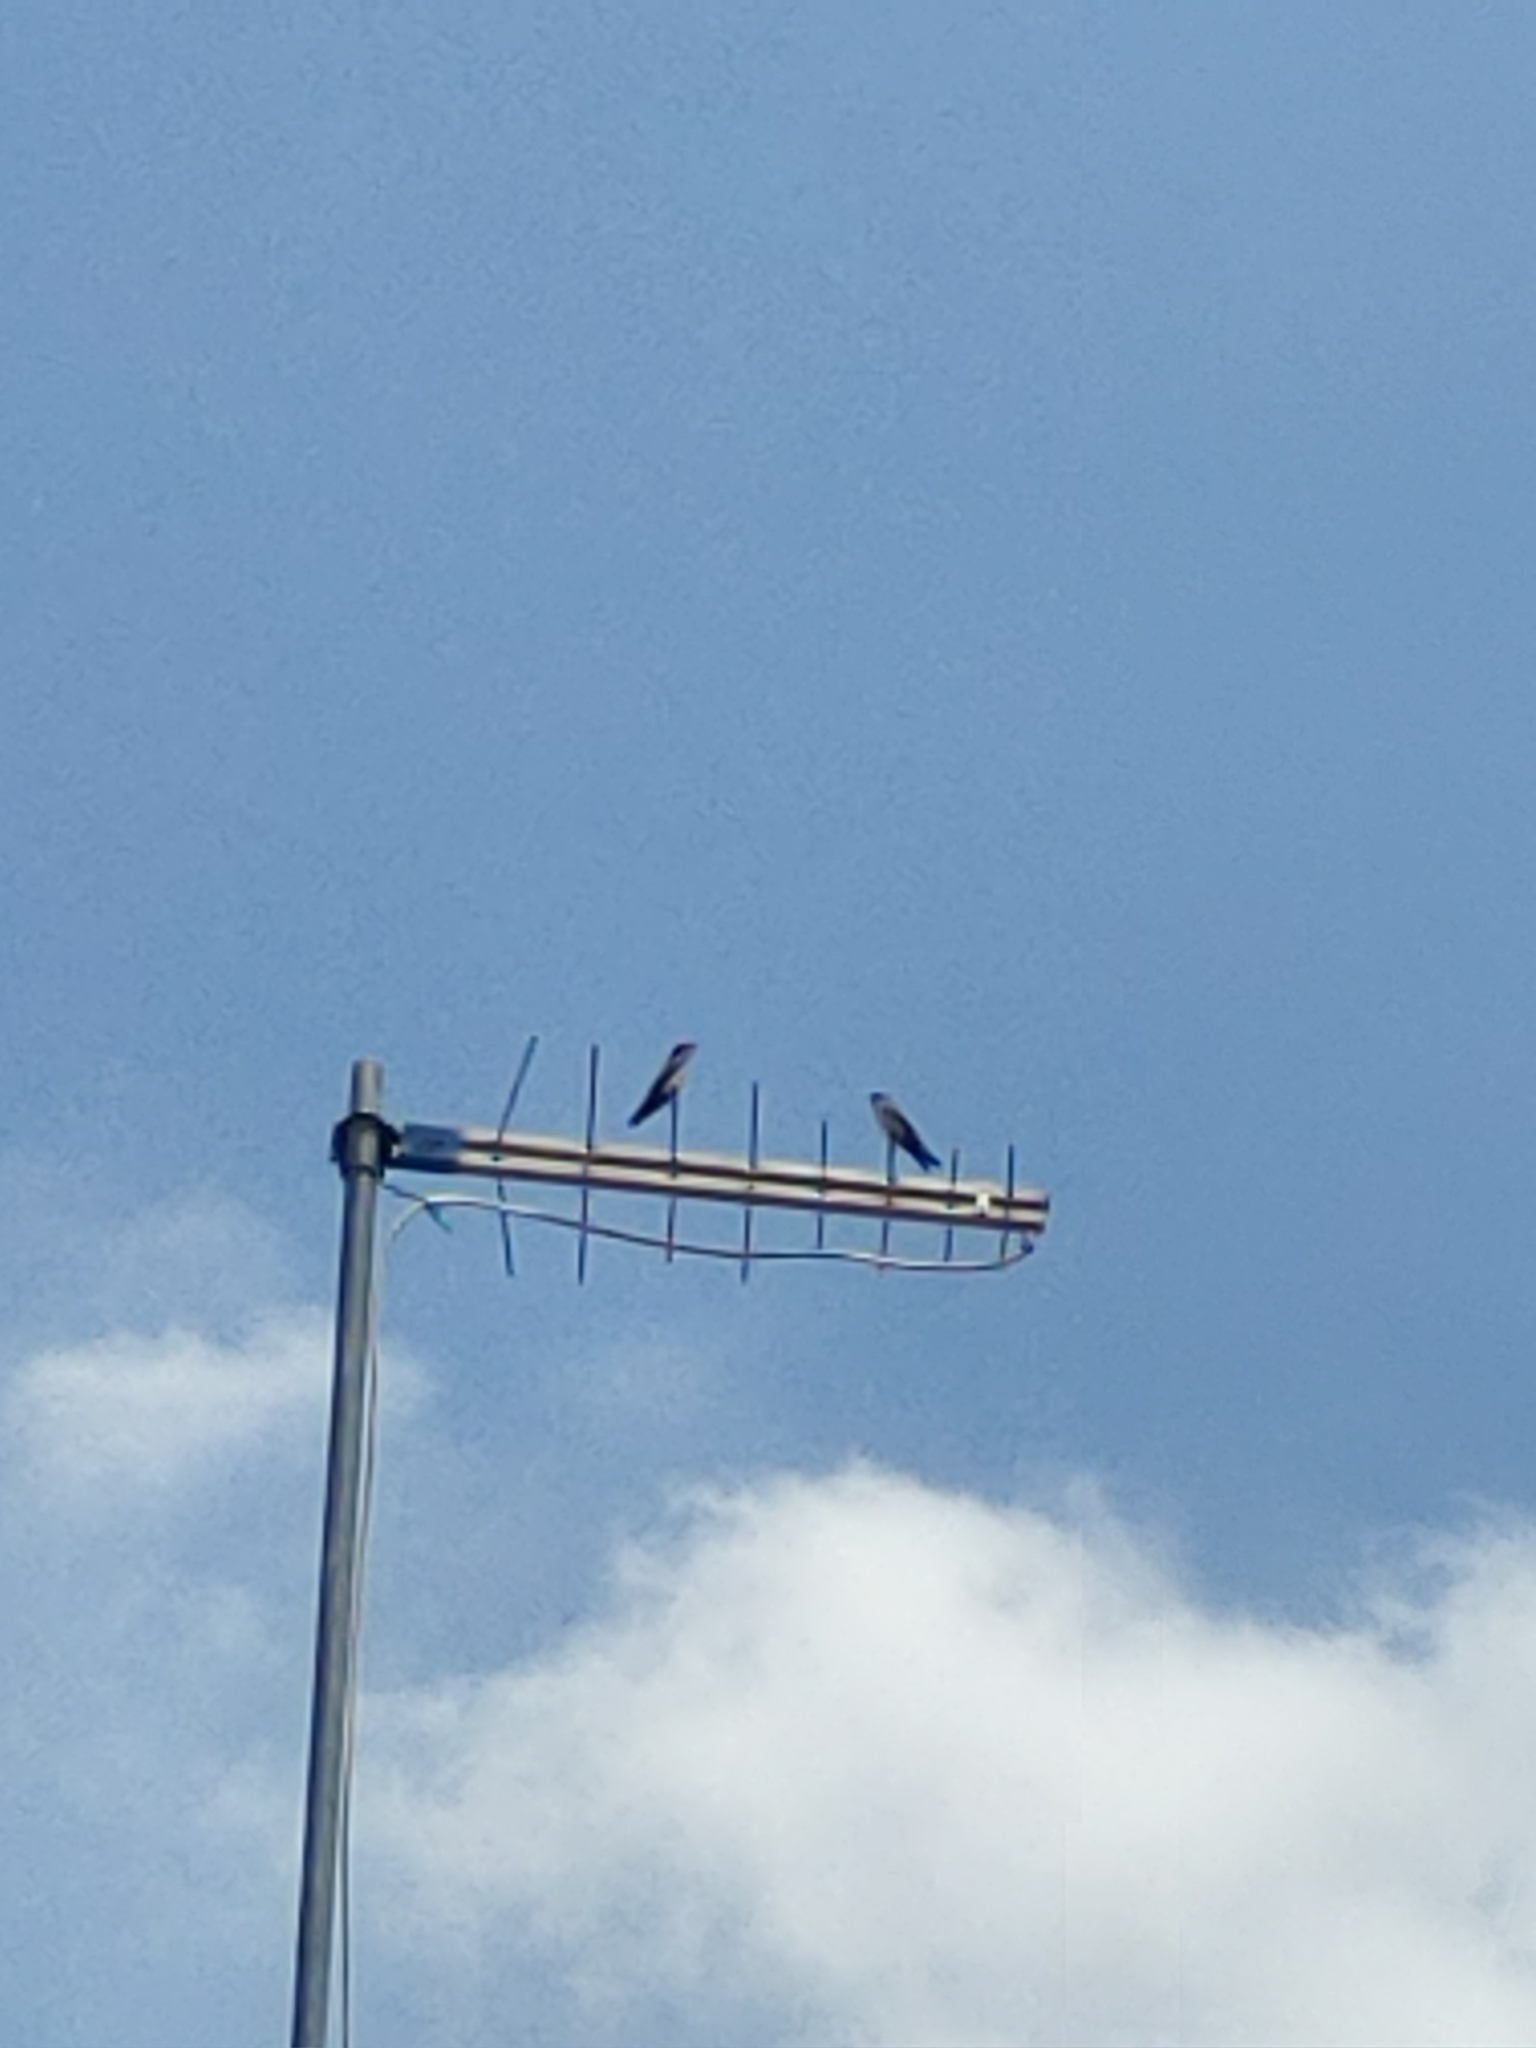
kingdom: Animalia
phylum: Chordata
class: Aves
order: Passeriformes
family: Hirundinidae
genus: Notiochelidon
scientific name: Notiochelidon cyanoleuca
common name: Blue-and-white swallow
